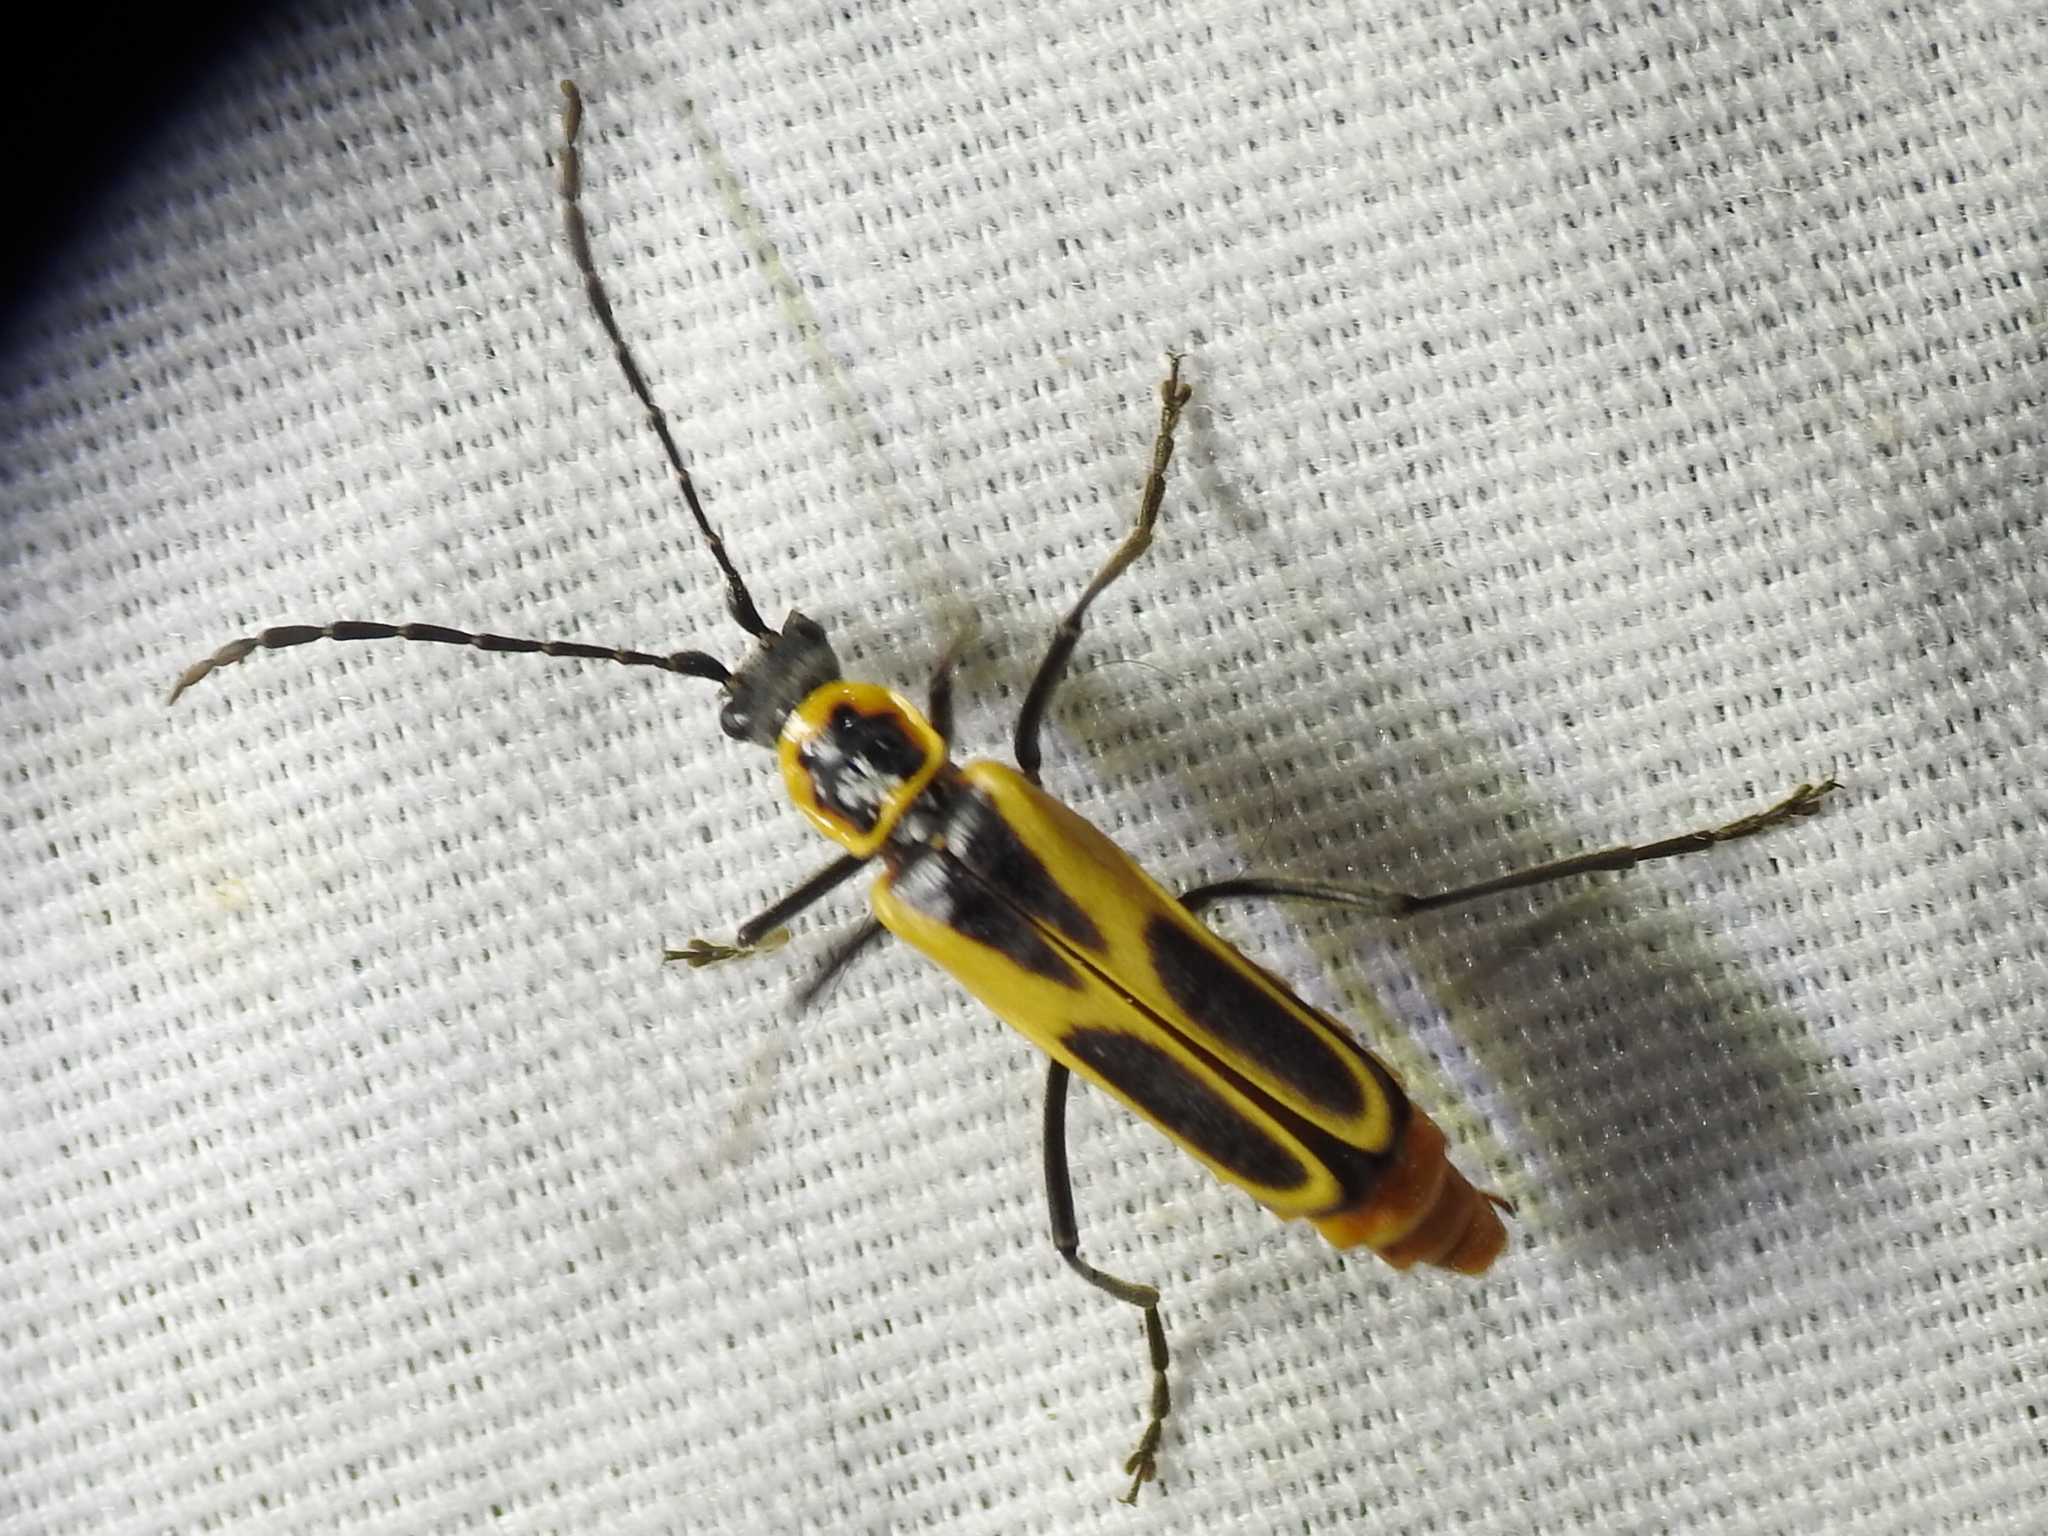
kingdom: Animalia
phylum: Arthropoda
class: Insecta
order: Coleoptera
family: Cantharidae
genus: Chauliognathus
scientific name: Chauliognathus scutellaris
